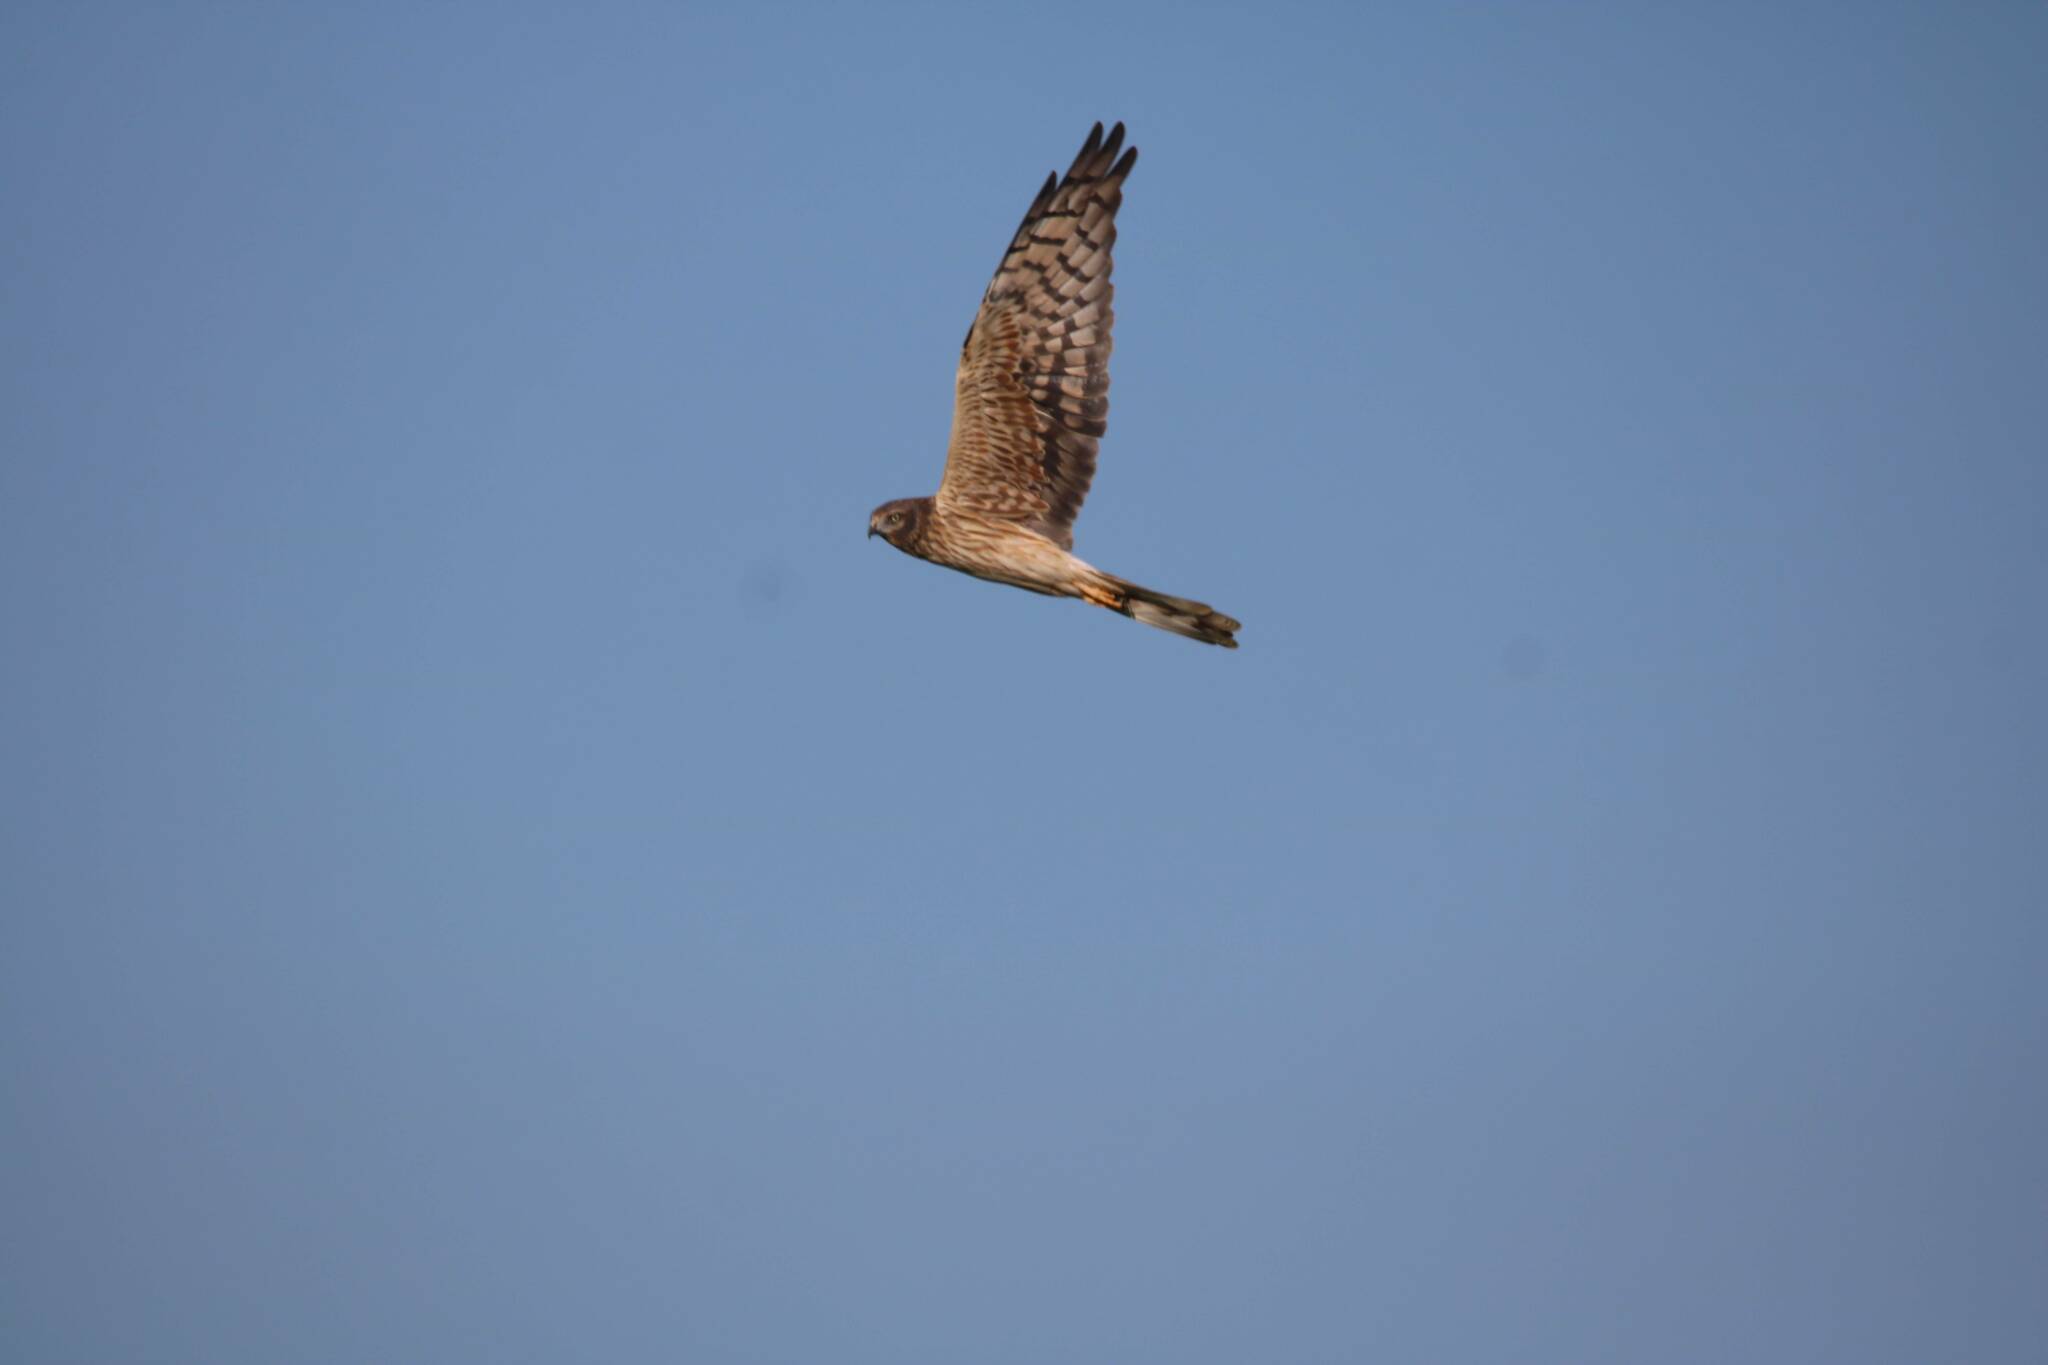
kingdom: Animalia
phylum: Chordata
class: Aves
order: Accipitriformes
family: Accipitridae
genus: Circus
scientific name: Circus pygargus
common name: Montagu's harrier
